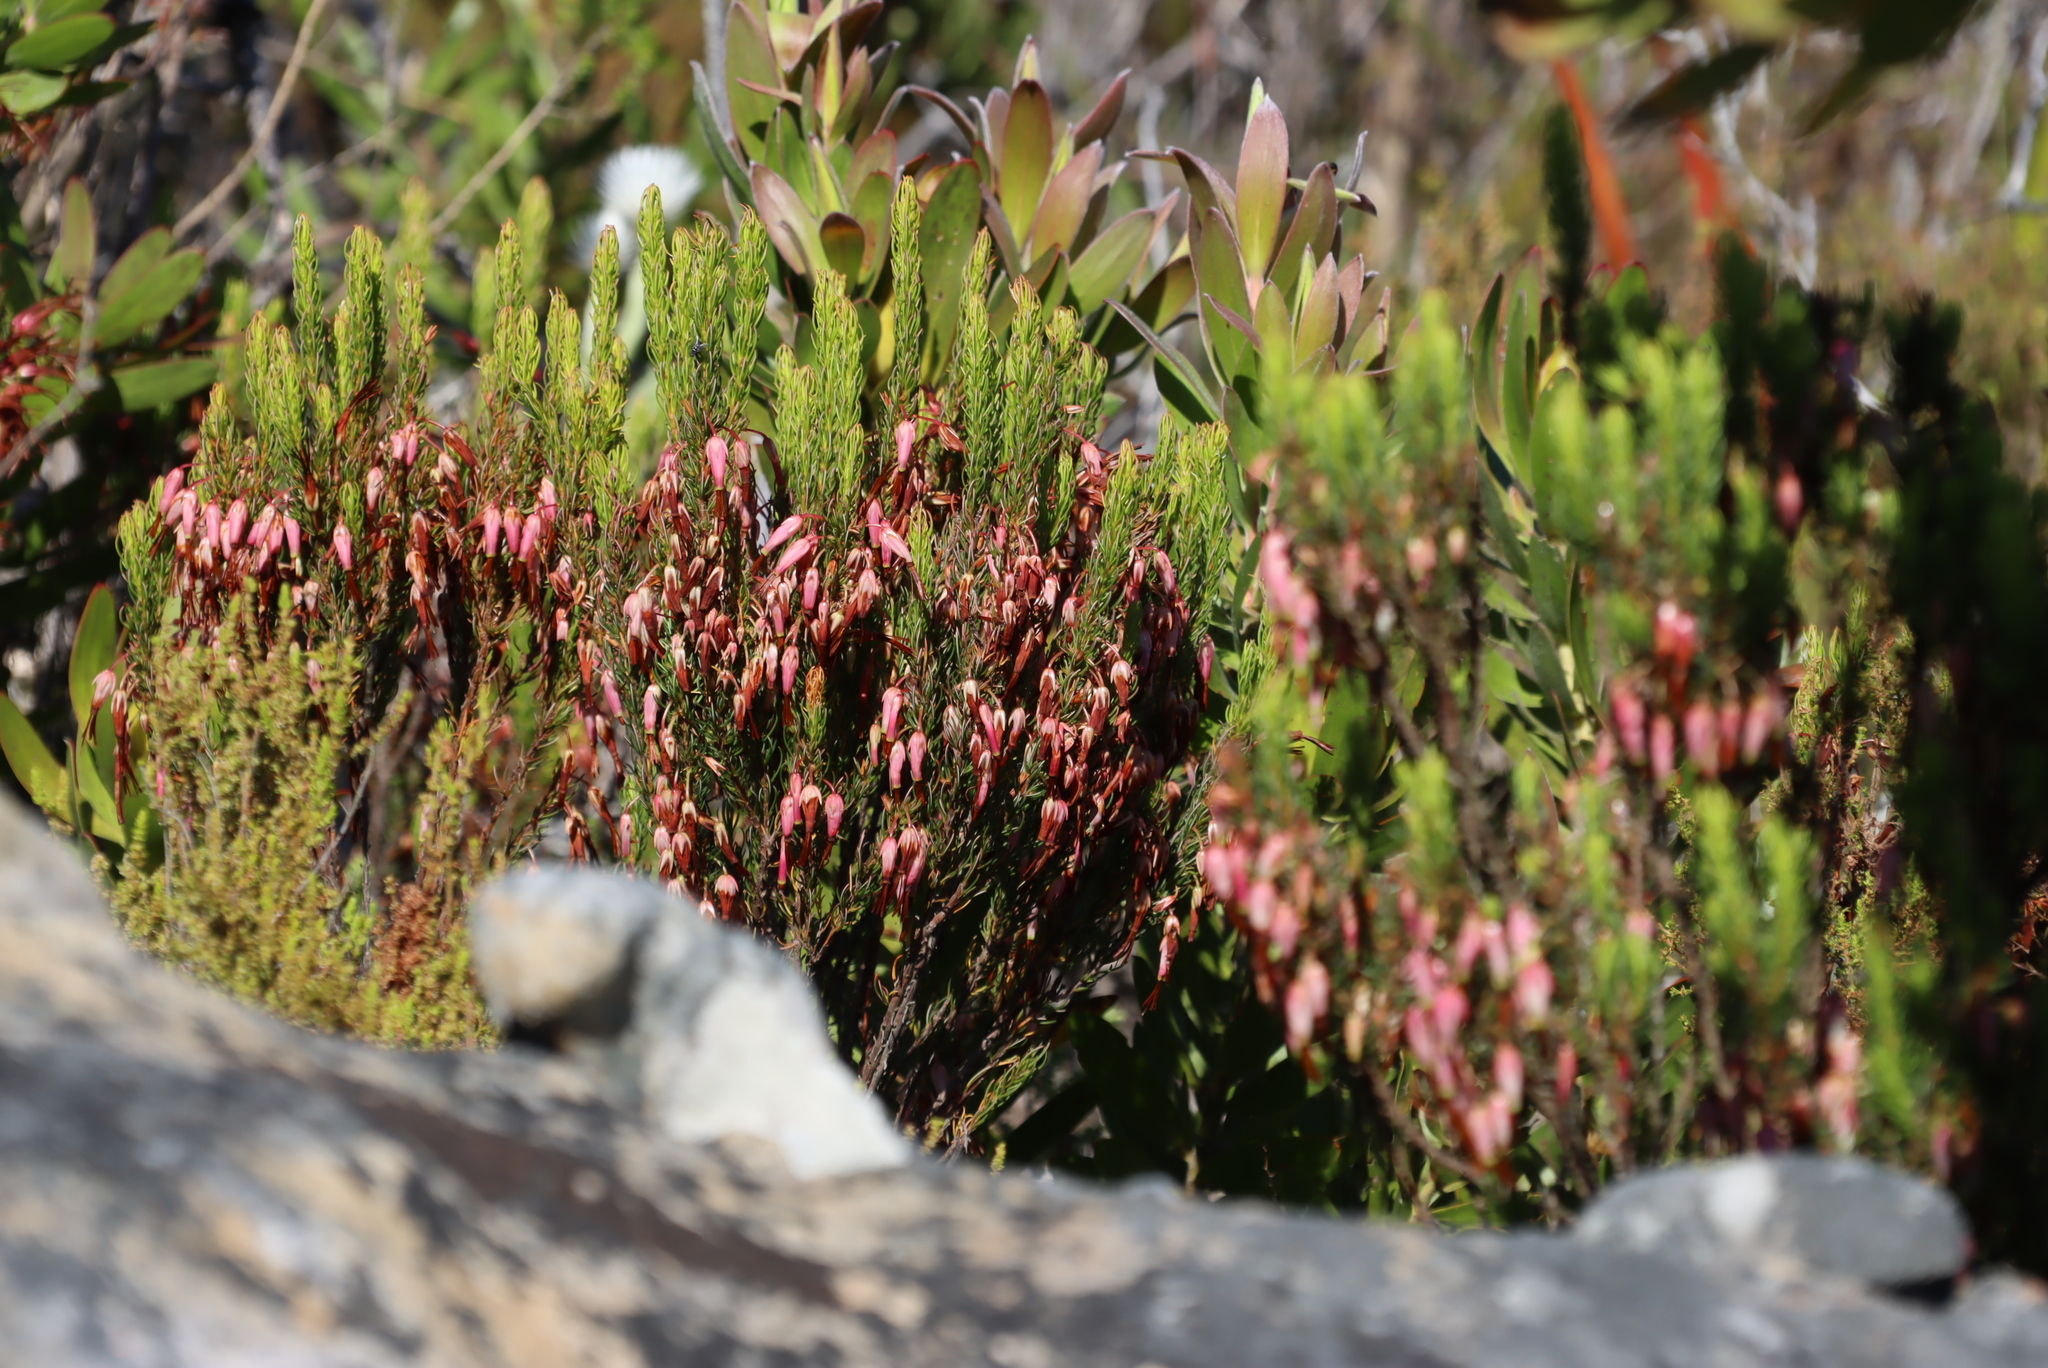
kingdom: Plantae
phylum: Tracheophyta
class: Magnoliopsida
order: Ericales
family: Ericaceae
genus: Erica
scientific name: Erica plukenetii
